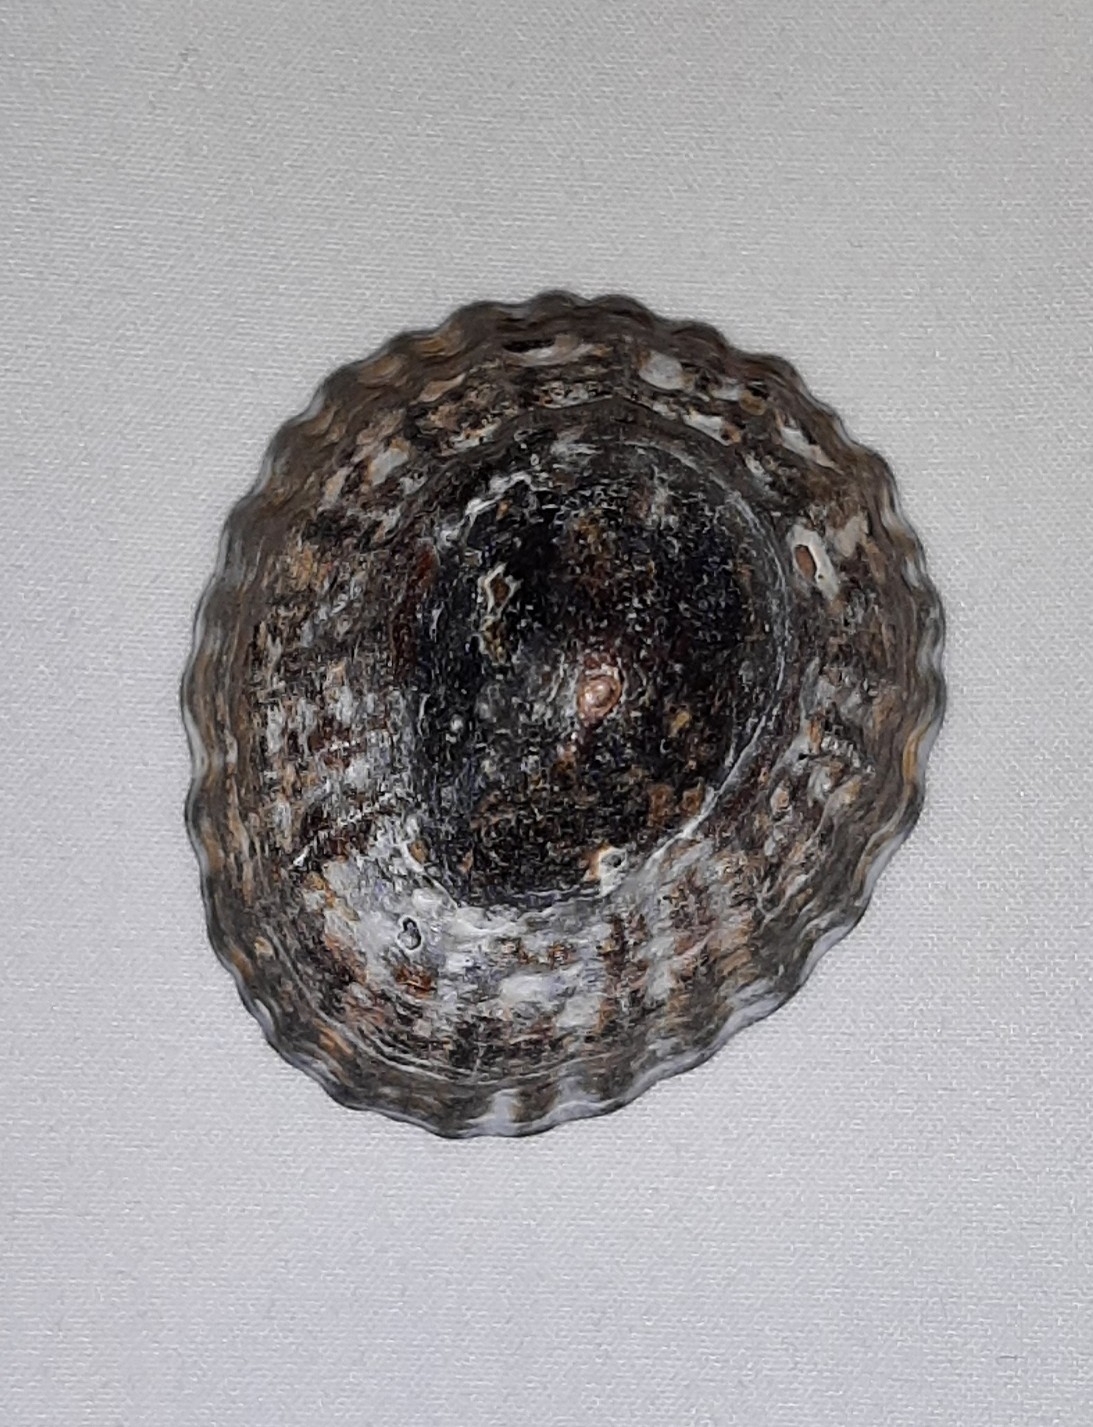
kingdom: Animalia
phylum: Mollusca
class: Gastropoda
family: Nacellidae
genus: Nacella
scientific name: Nacella magellanica
